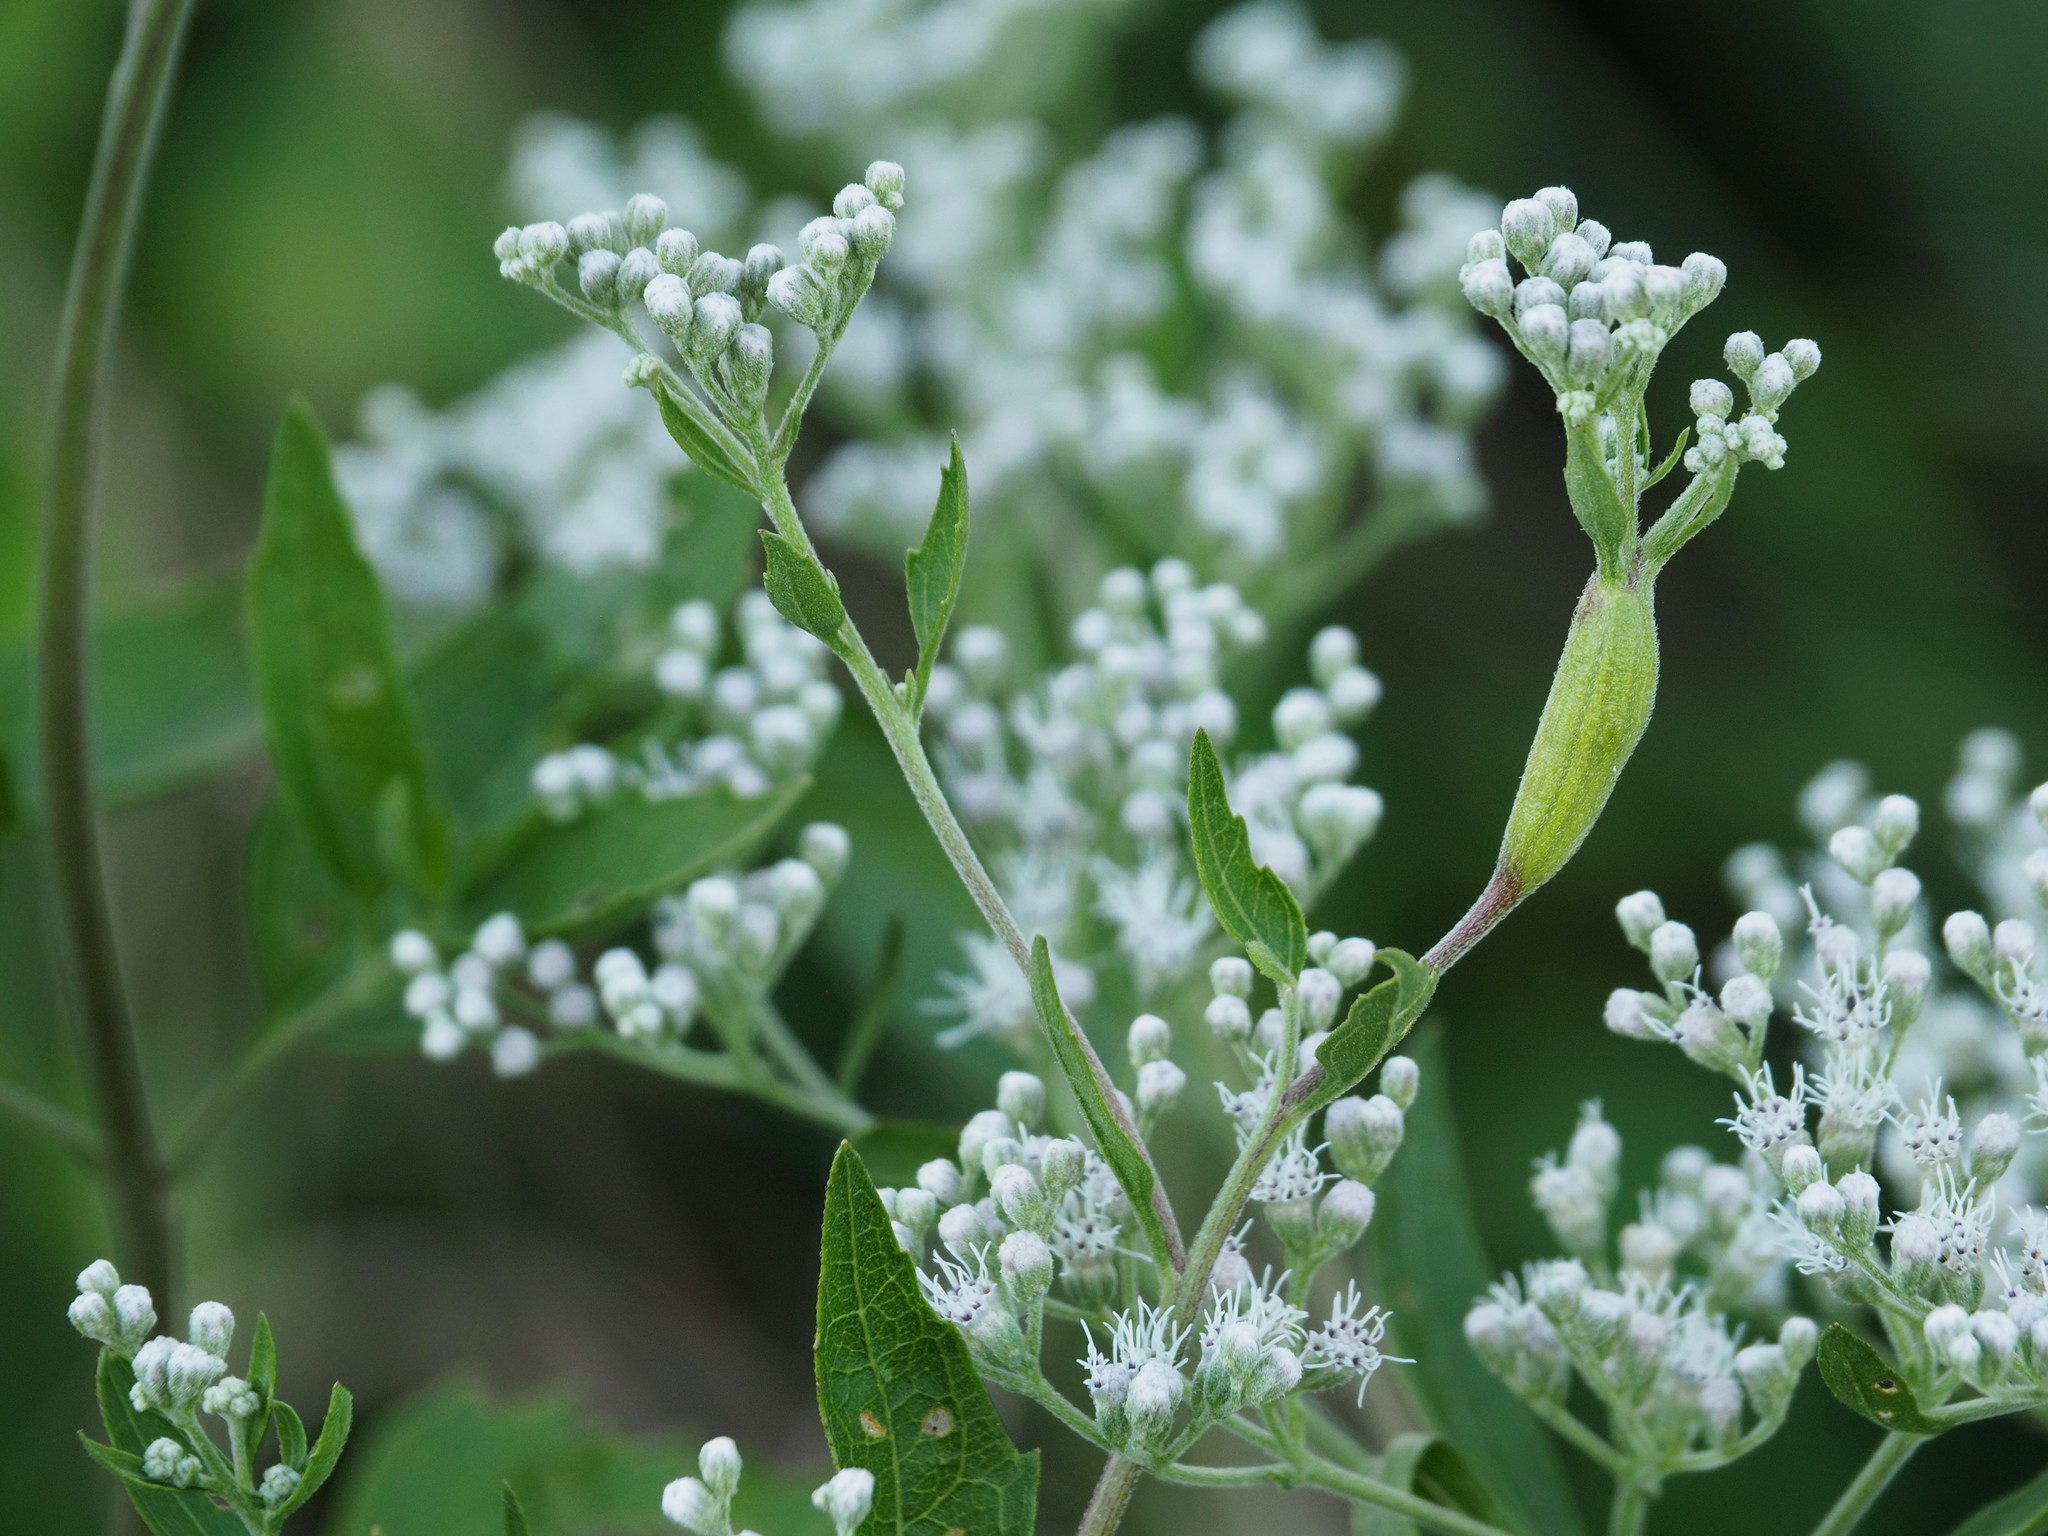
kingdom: Animalia
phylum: Arthropoda
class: Insecta
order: Diptera
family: Cecidomyiidae
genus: Neolasioptera
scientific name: Neolasioptera perfoliata
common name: Boneset stem midge
